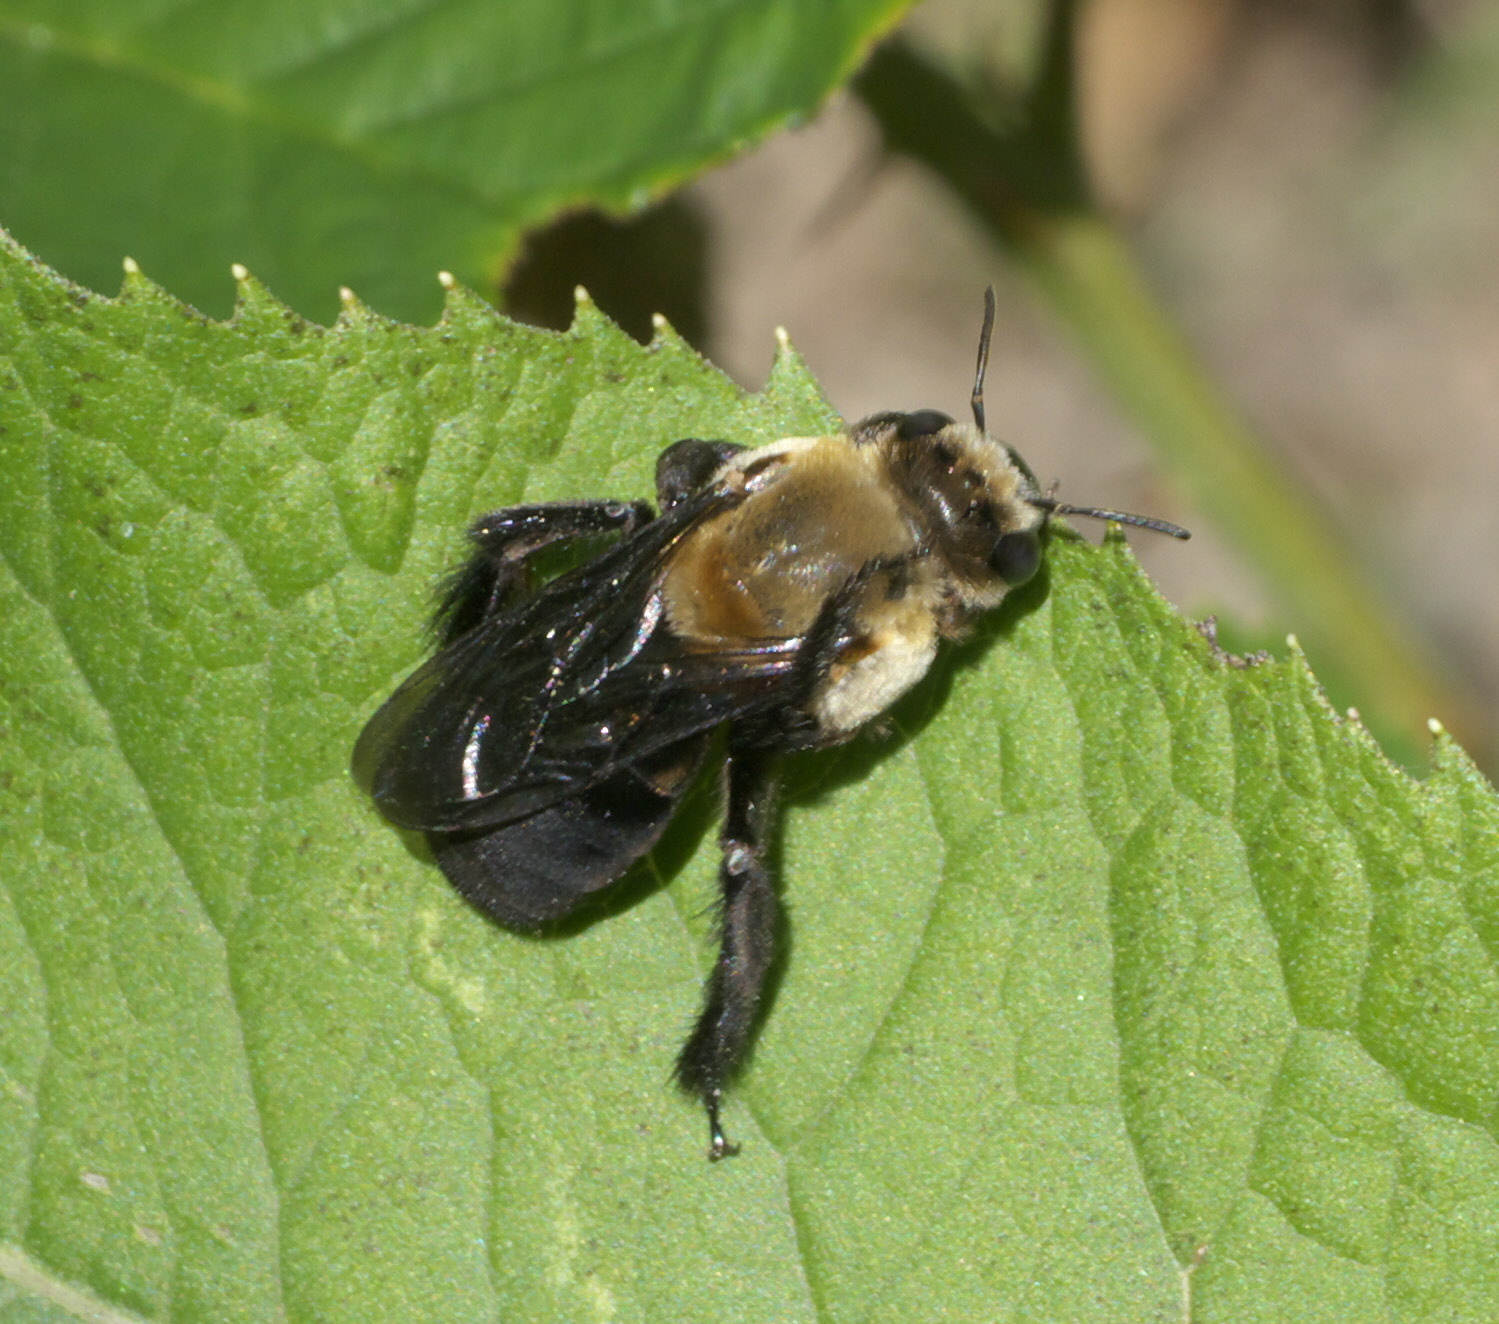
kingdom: Animalia
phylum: Arthropoda
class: Insecta
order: Hymenoptera
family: Apidae
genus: Ptilothrix
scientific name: Ptilothrix bombiformis
